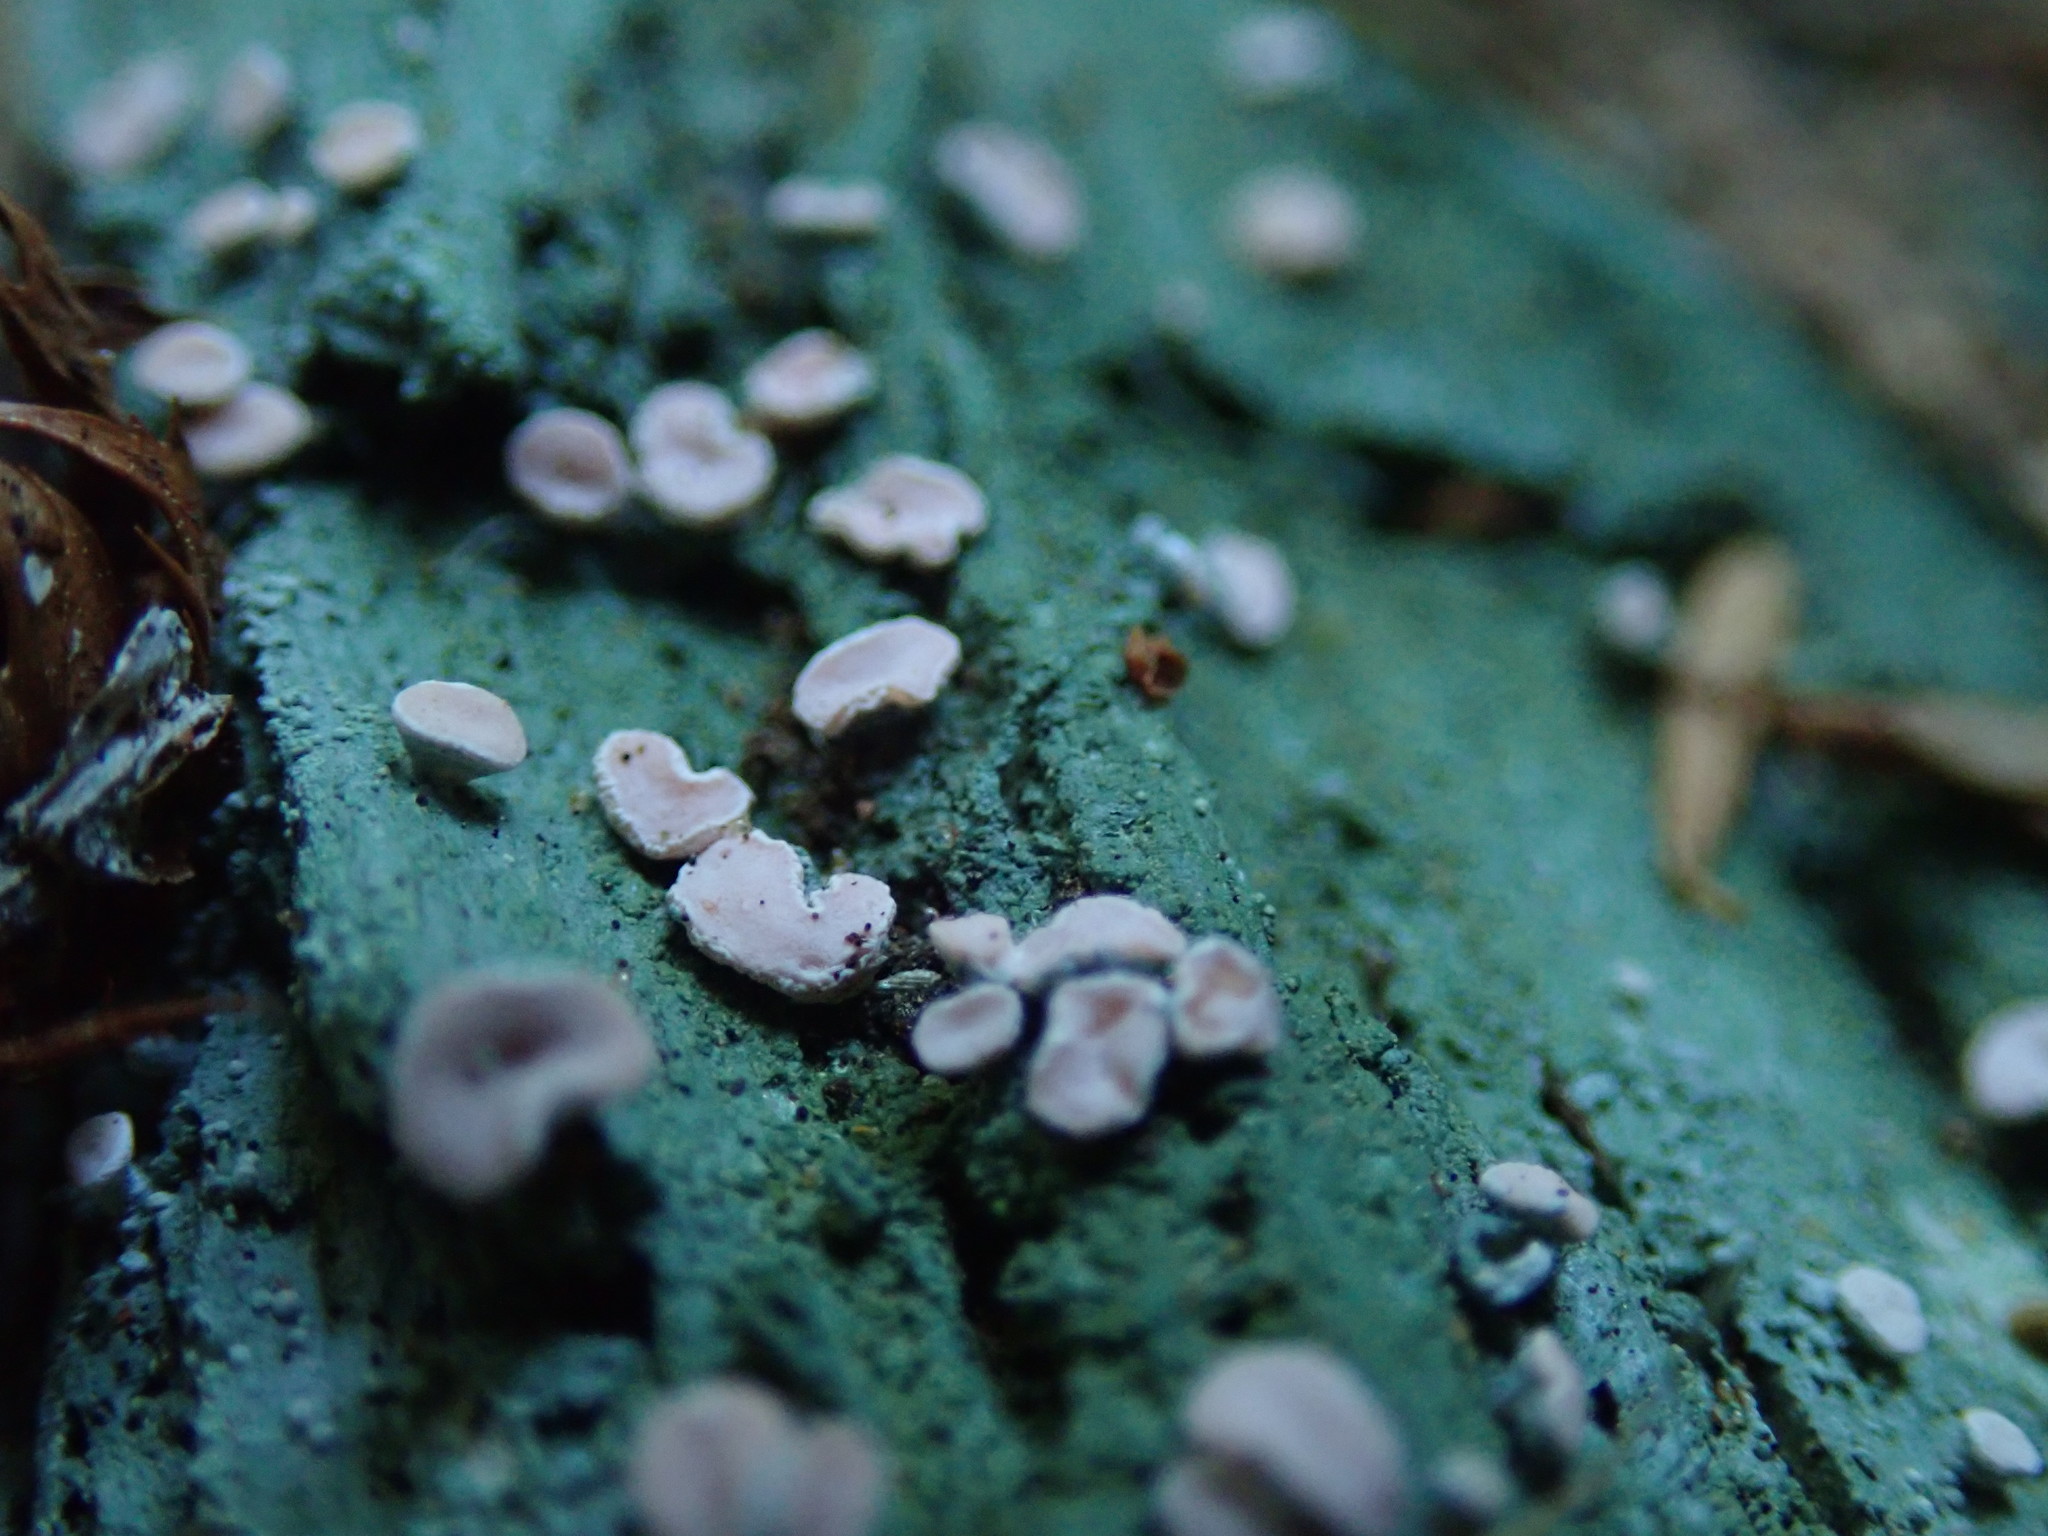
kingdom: Fungi
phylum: Ascomycota
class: Lecanoromycetes
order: Pertusariales
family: Icmadophilaceae
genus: Icmadophila
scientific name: Icmadophila ericetorum
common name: Candy lichen
